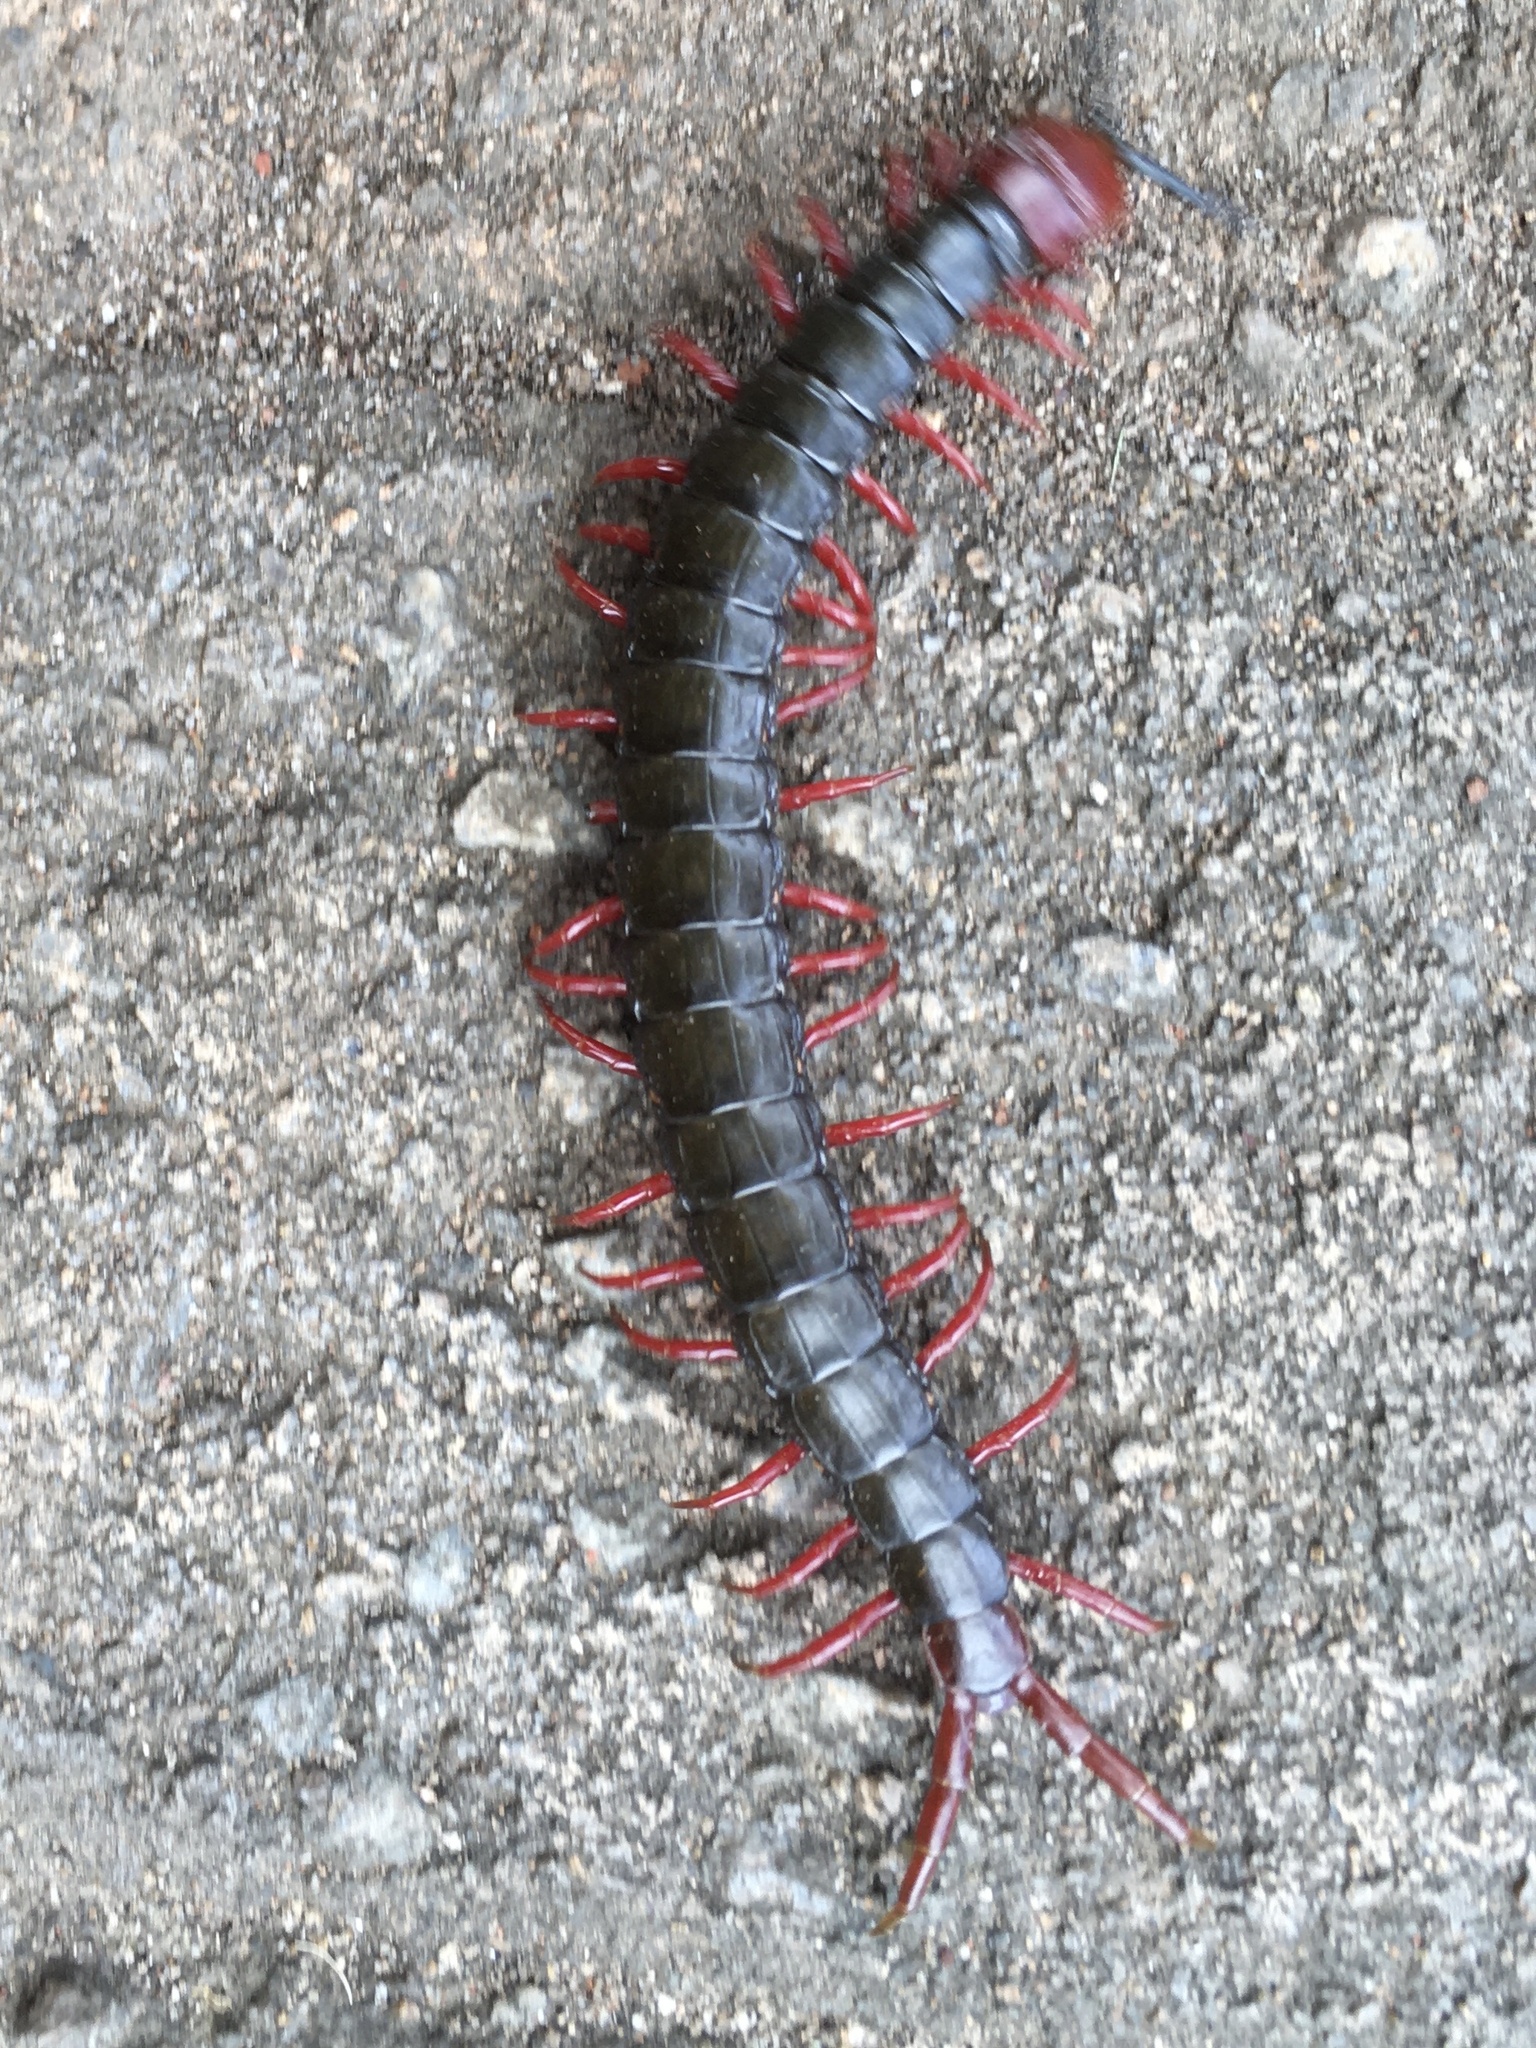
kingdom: Animalia
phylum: Arthropoda
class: Chilopoda
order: Scolopendromorpha
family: Scolopendridae
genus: Cormocephalus
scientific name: Cormocephalus nitidus
